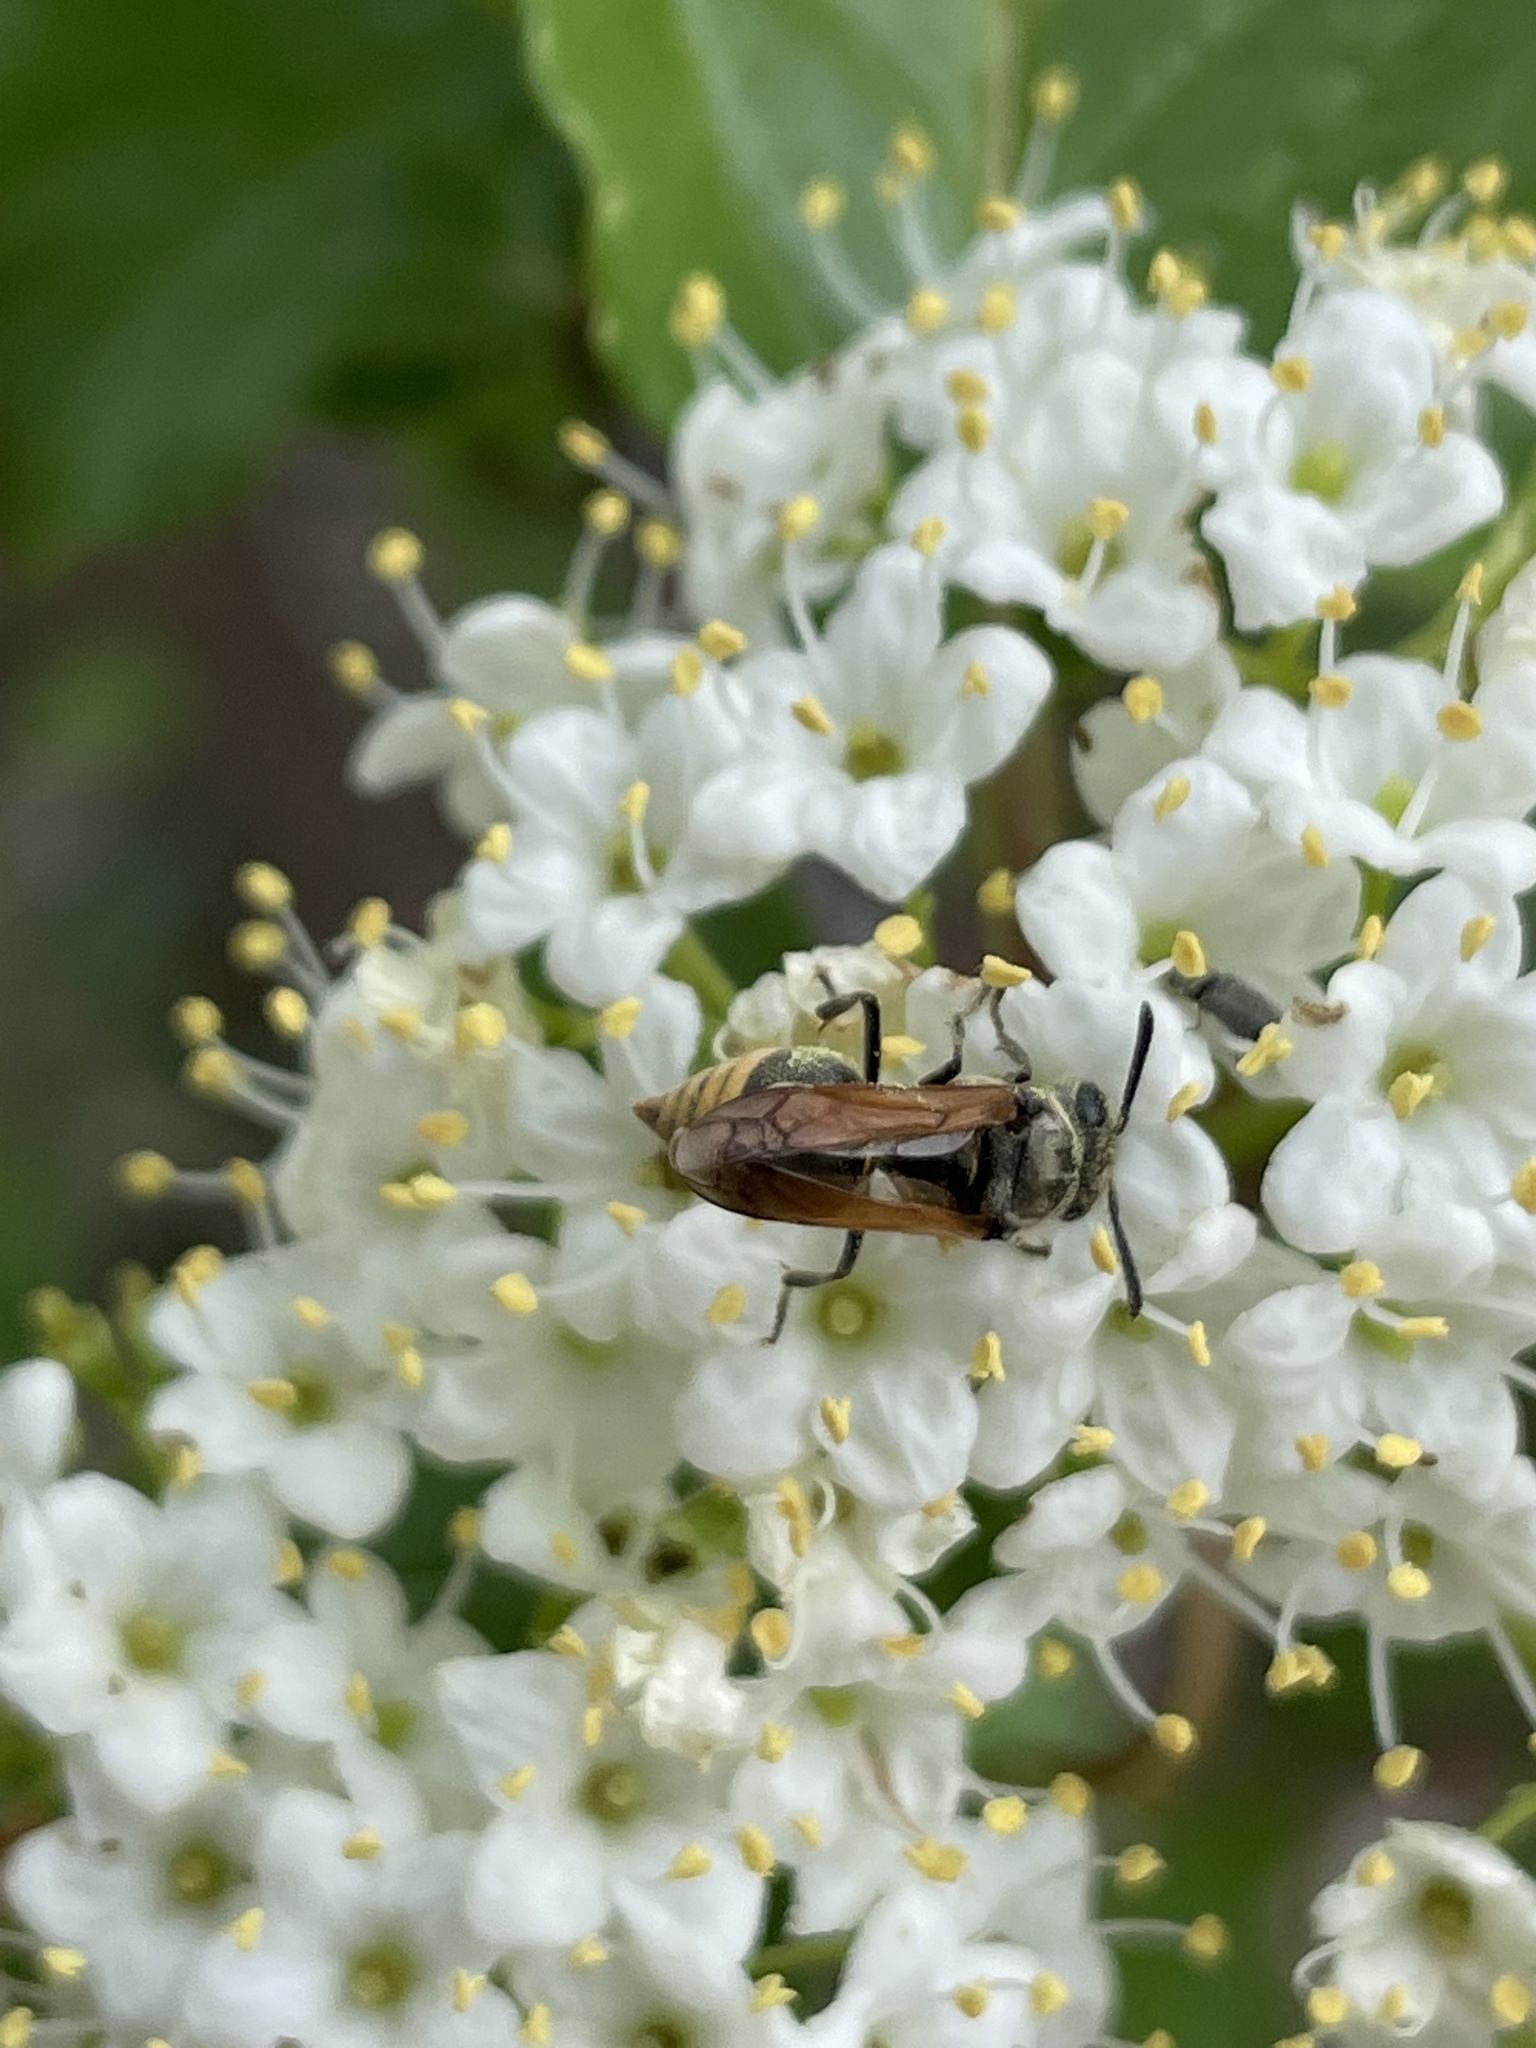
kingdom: Animalia
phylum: Arthropoda
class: Insecta
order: Hymenoptera
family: Vespidae
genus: Brachygastra
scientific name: Brachygastra mellifica
